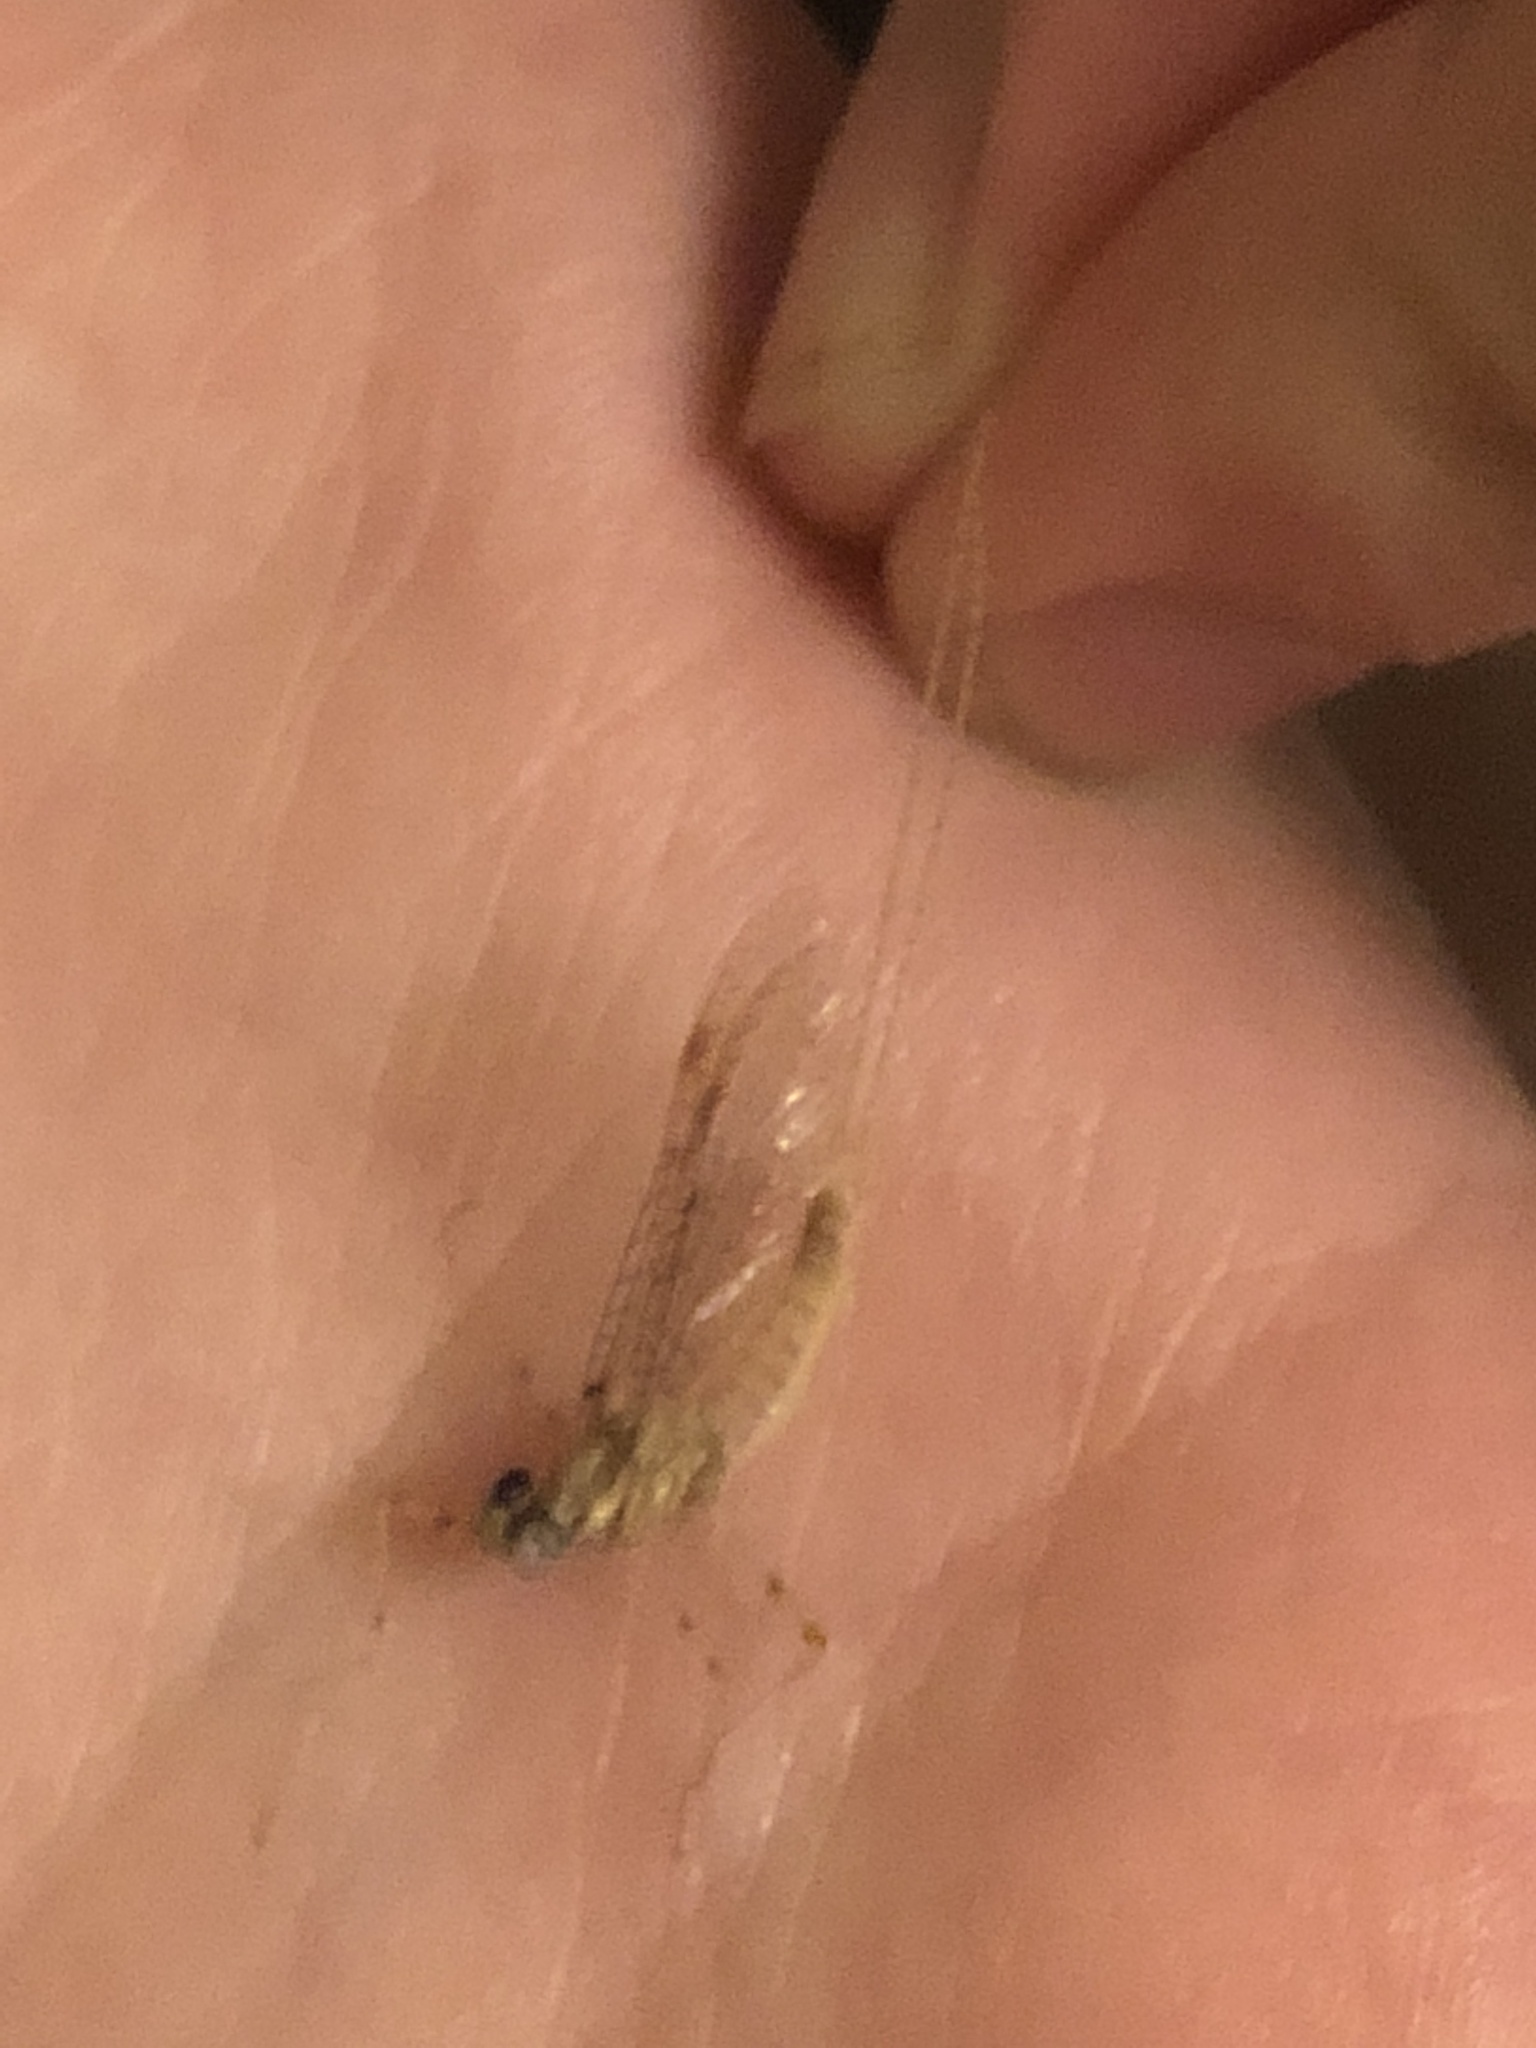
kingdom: Animalia
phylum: Arthropoda
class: Insecta
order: Ephemeroptera
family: Heptageniidae
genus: Stenonema
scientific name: Stenonema femoratum
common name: Dark cahill
